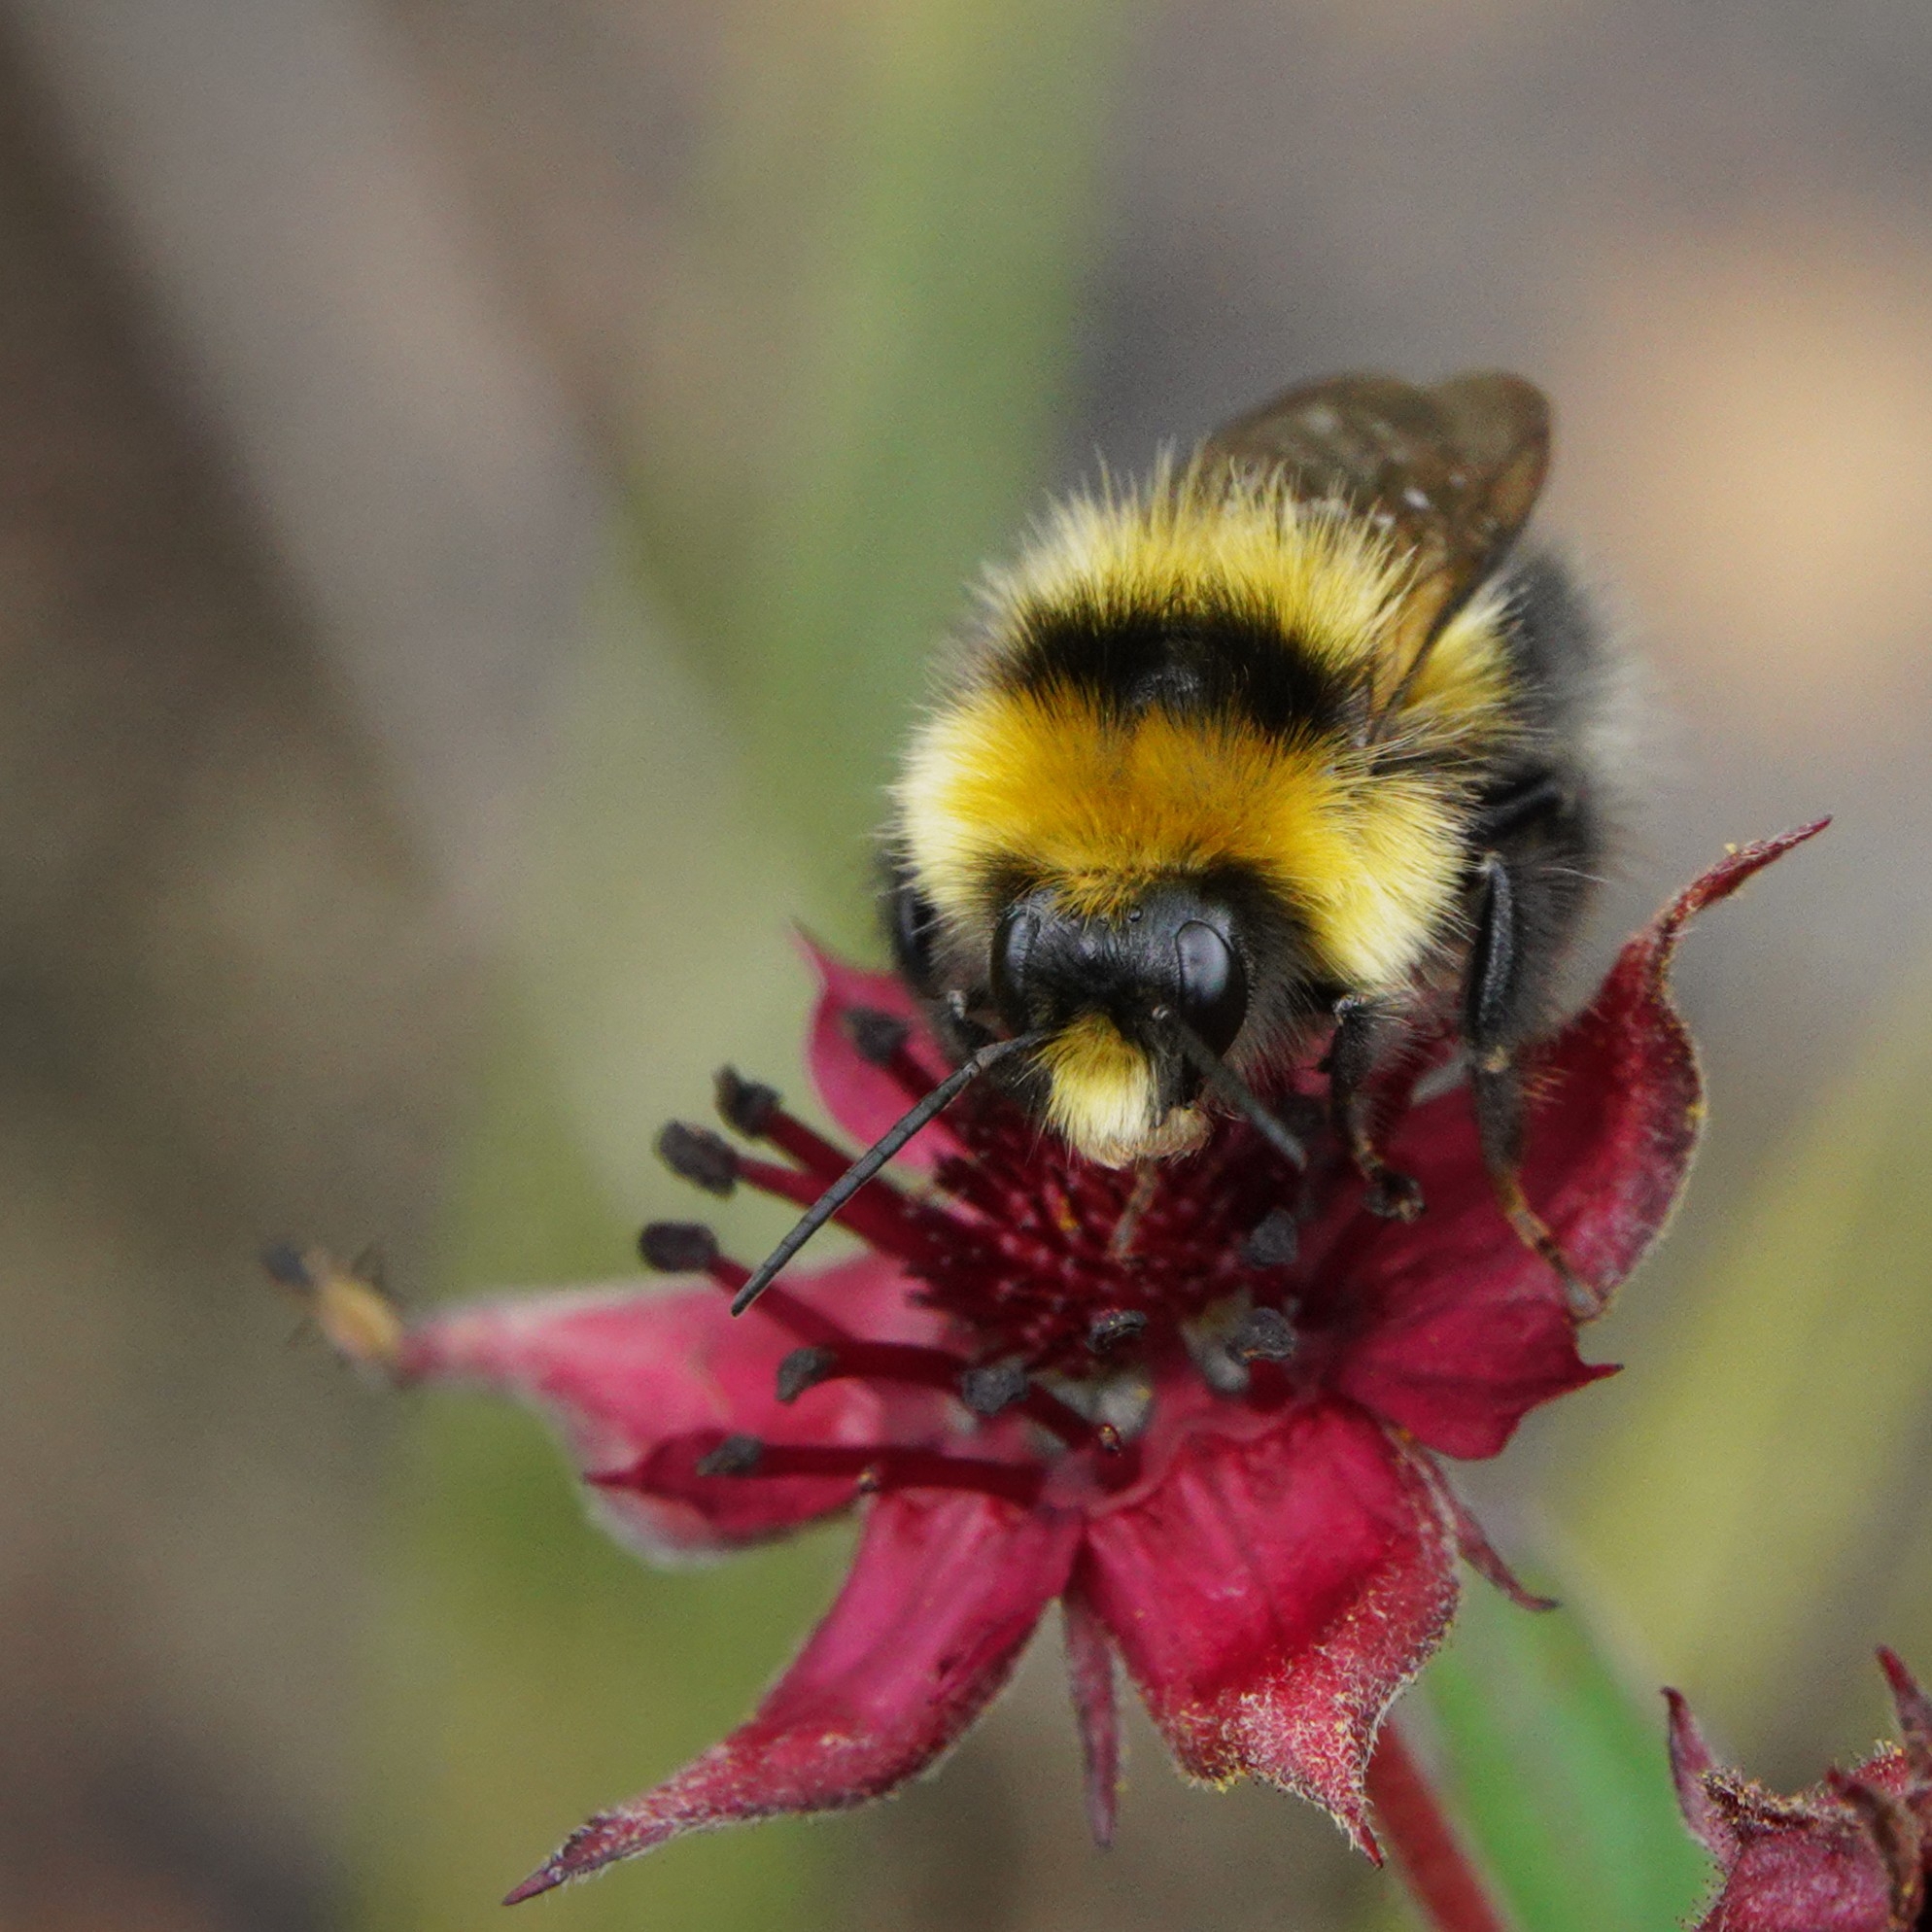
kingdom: Animalia
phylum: Arthropoda
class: Insecta
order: Hymenoptera
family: Apidae
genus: Bombus
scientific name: Bombus jonellus
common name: Heath humble-bee
